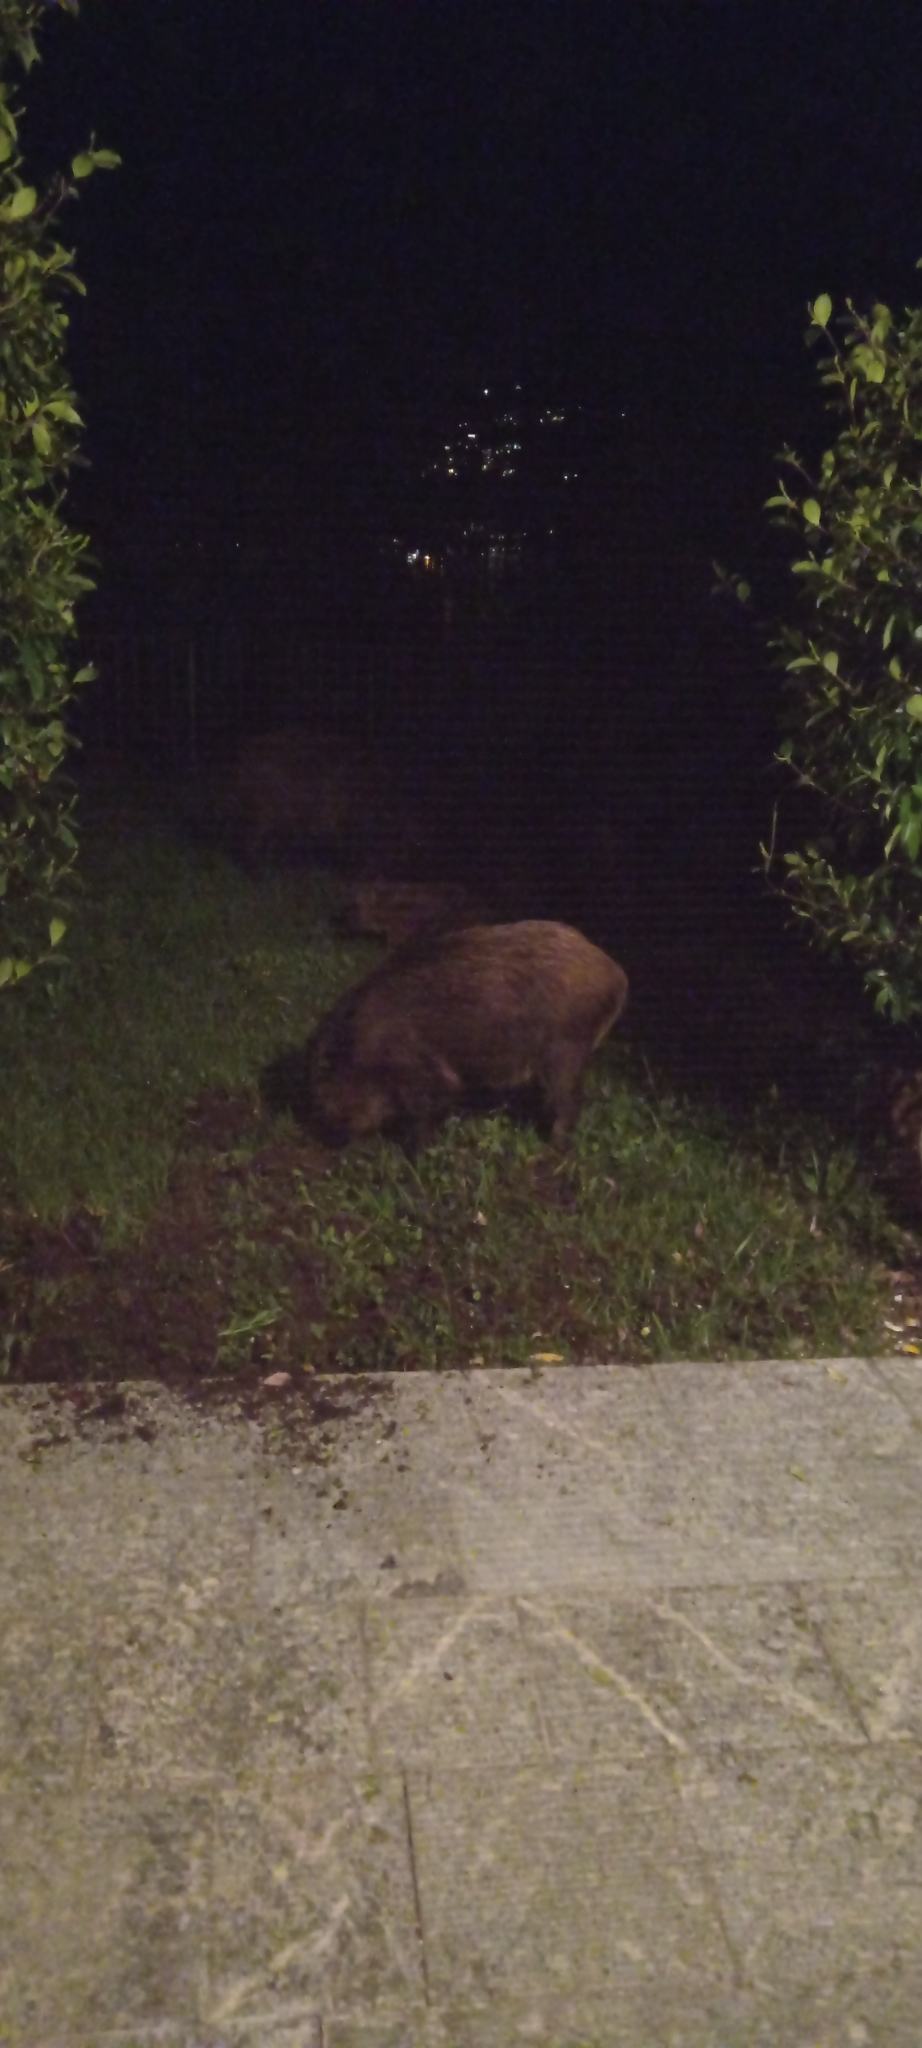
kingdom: Animalia
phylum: Chordata
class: Mammalia
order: Artiodactyla
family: Suidae
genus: Sus
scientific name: Sus scrofa
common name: Wild boar
